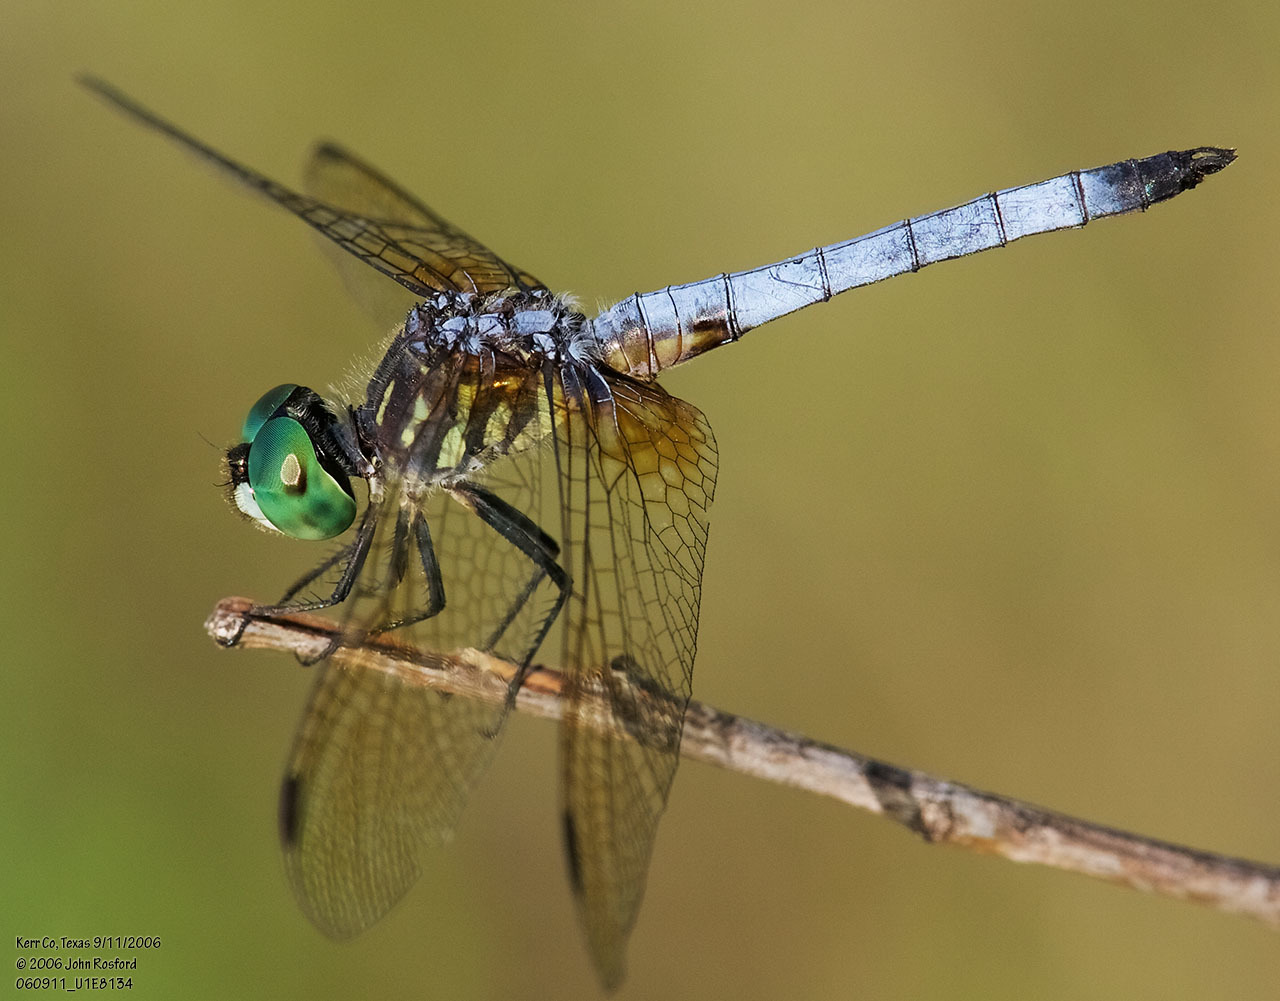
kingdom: Animalia
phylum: Arthropoda
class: Insecta
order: Odonata
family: Libellulidae
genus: Pachydiplax
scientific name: Pachydiplax longipennis
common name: Blue dasher
